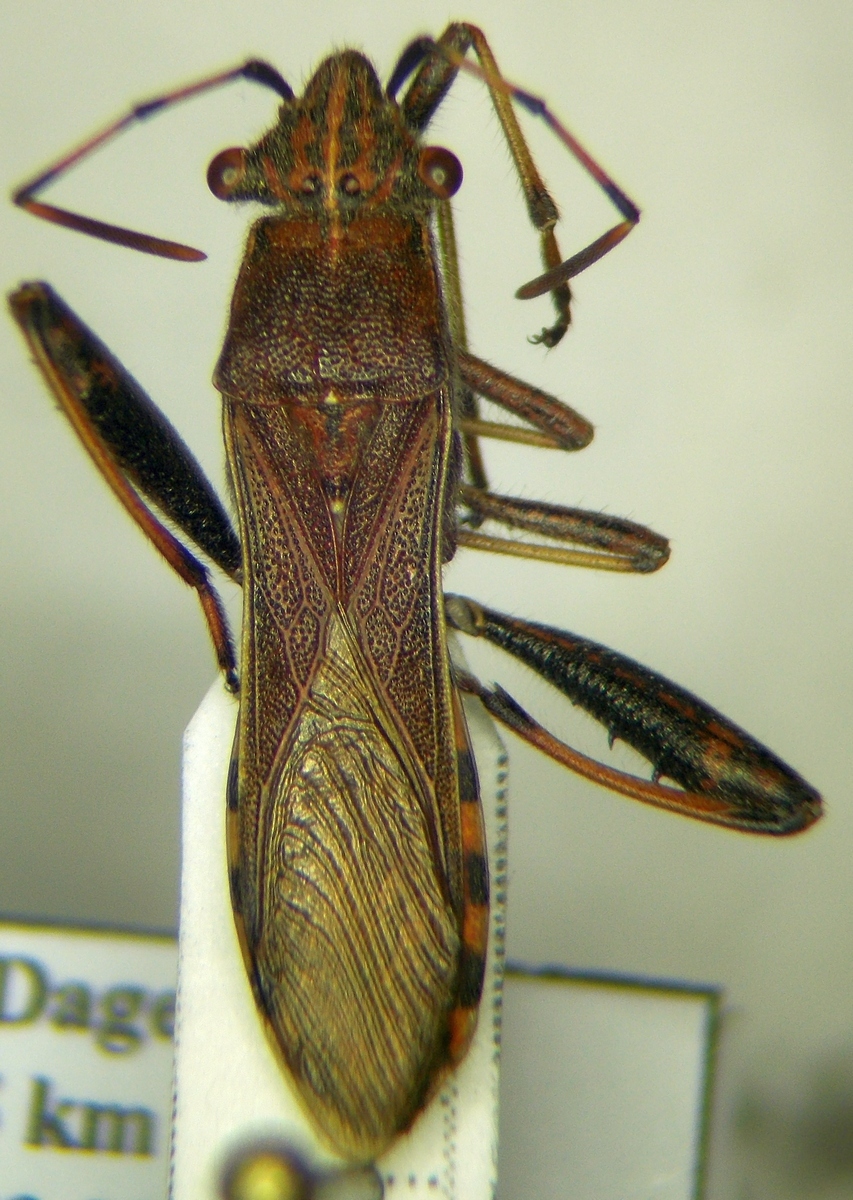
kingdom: Animalia
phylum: Arthropoda
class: Insecta
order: Hemiptera
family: Alydidae
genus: Camptopus
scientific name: Camptopus lateralis
